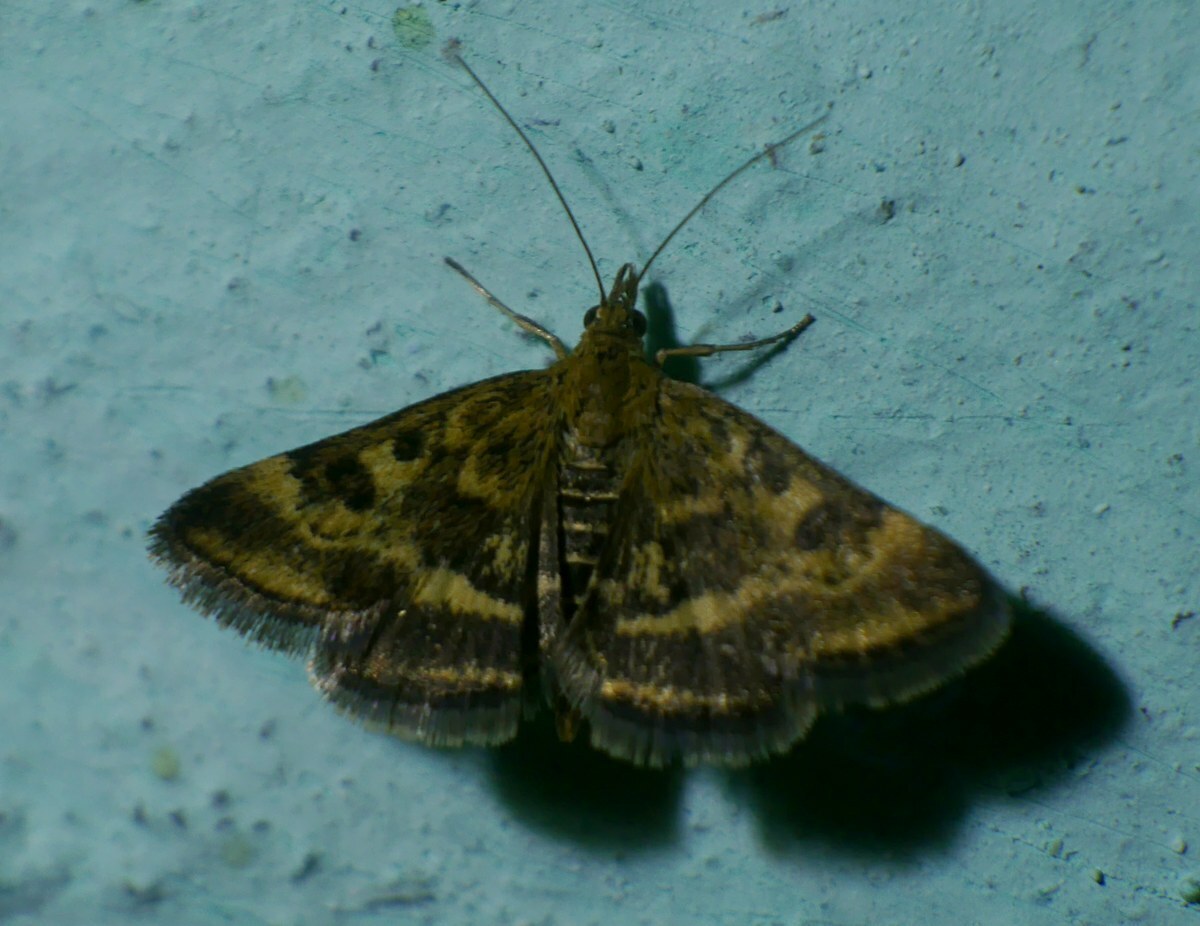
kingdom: Animalia
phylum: Arthropoda
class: Insecta
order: Lepidoptera
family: Crambidae
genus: Pyrausta
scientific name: Pyrausta despicata
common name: Straw-barred pearl
